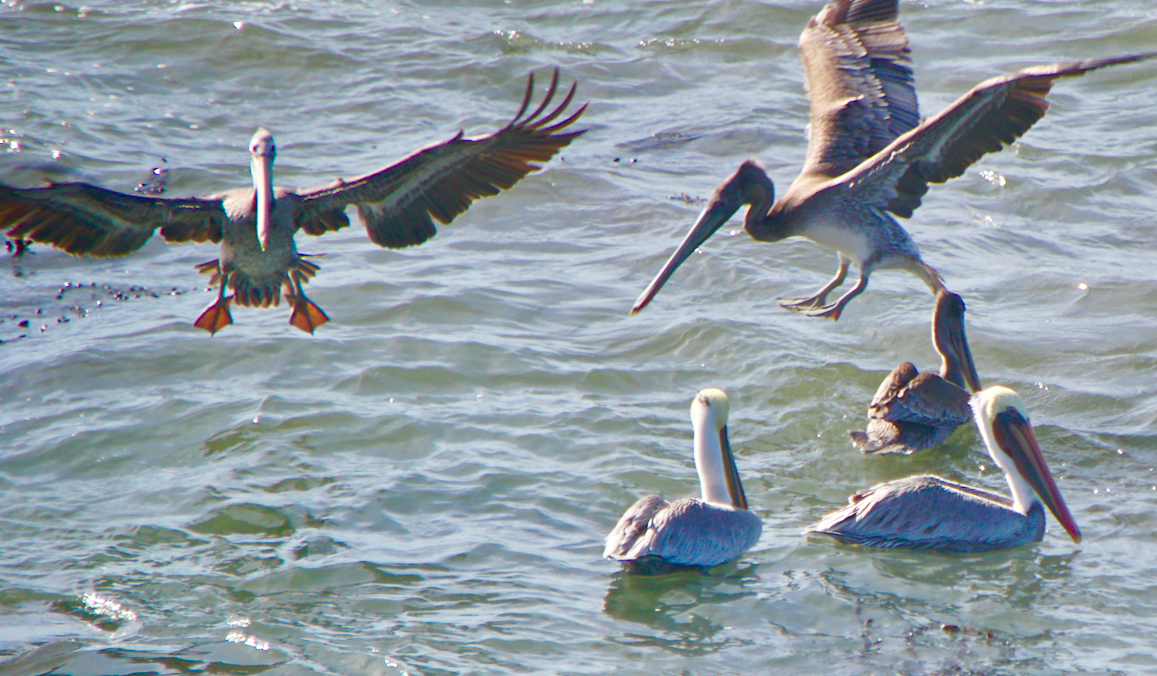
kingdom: Animalia
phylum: Chordata
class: Aves
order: Pelecaniformes
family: Pelecanidae
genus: Pelecanus
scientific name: Pelecanus occidentalis
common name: Brown pelican
